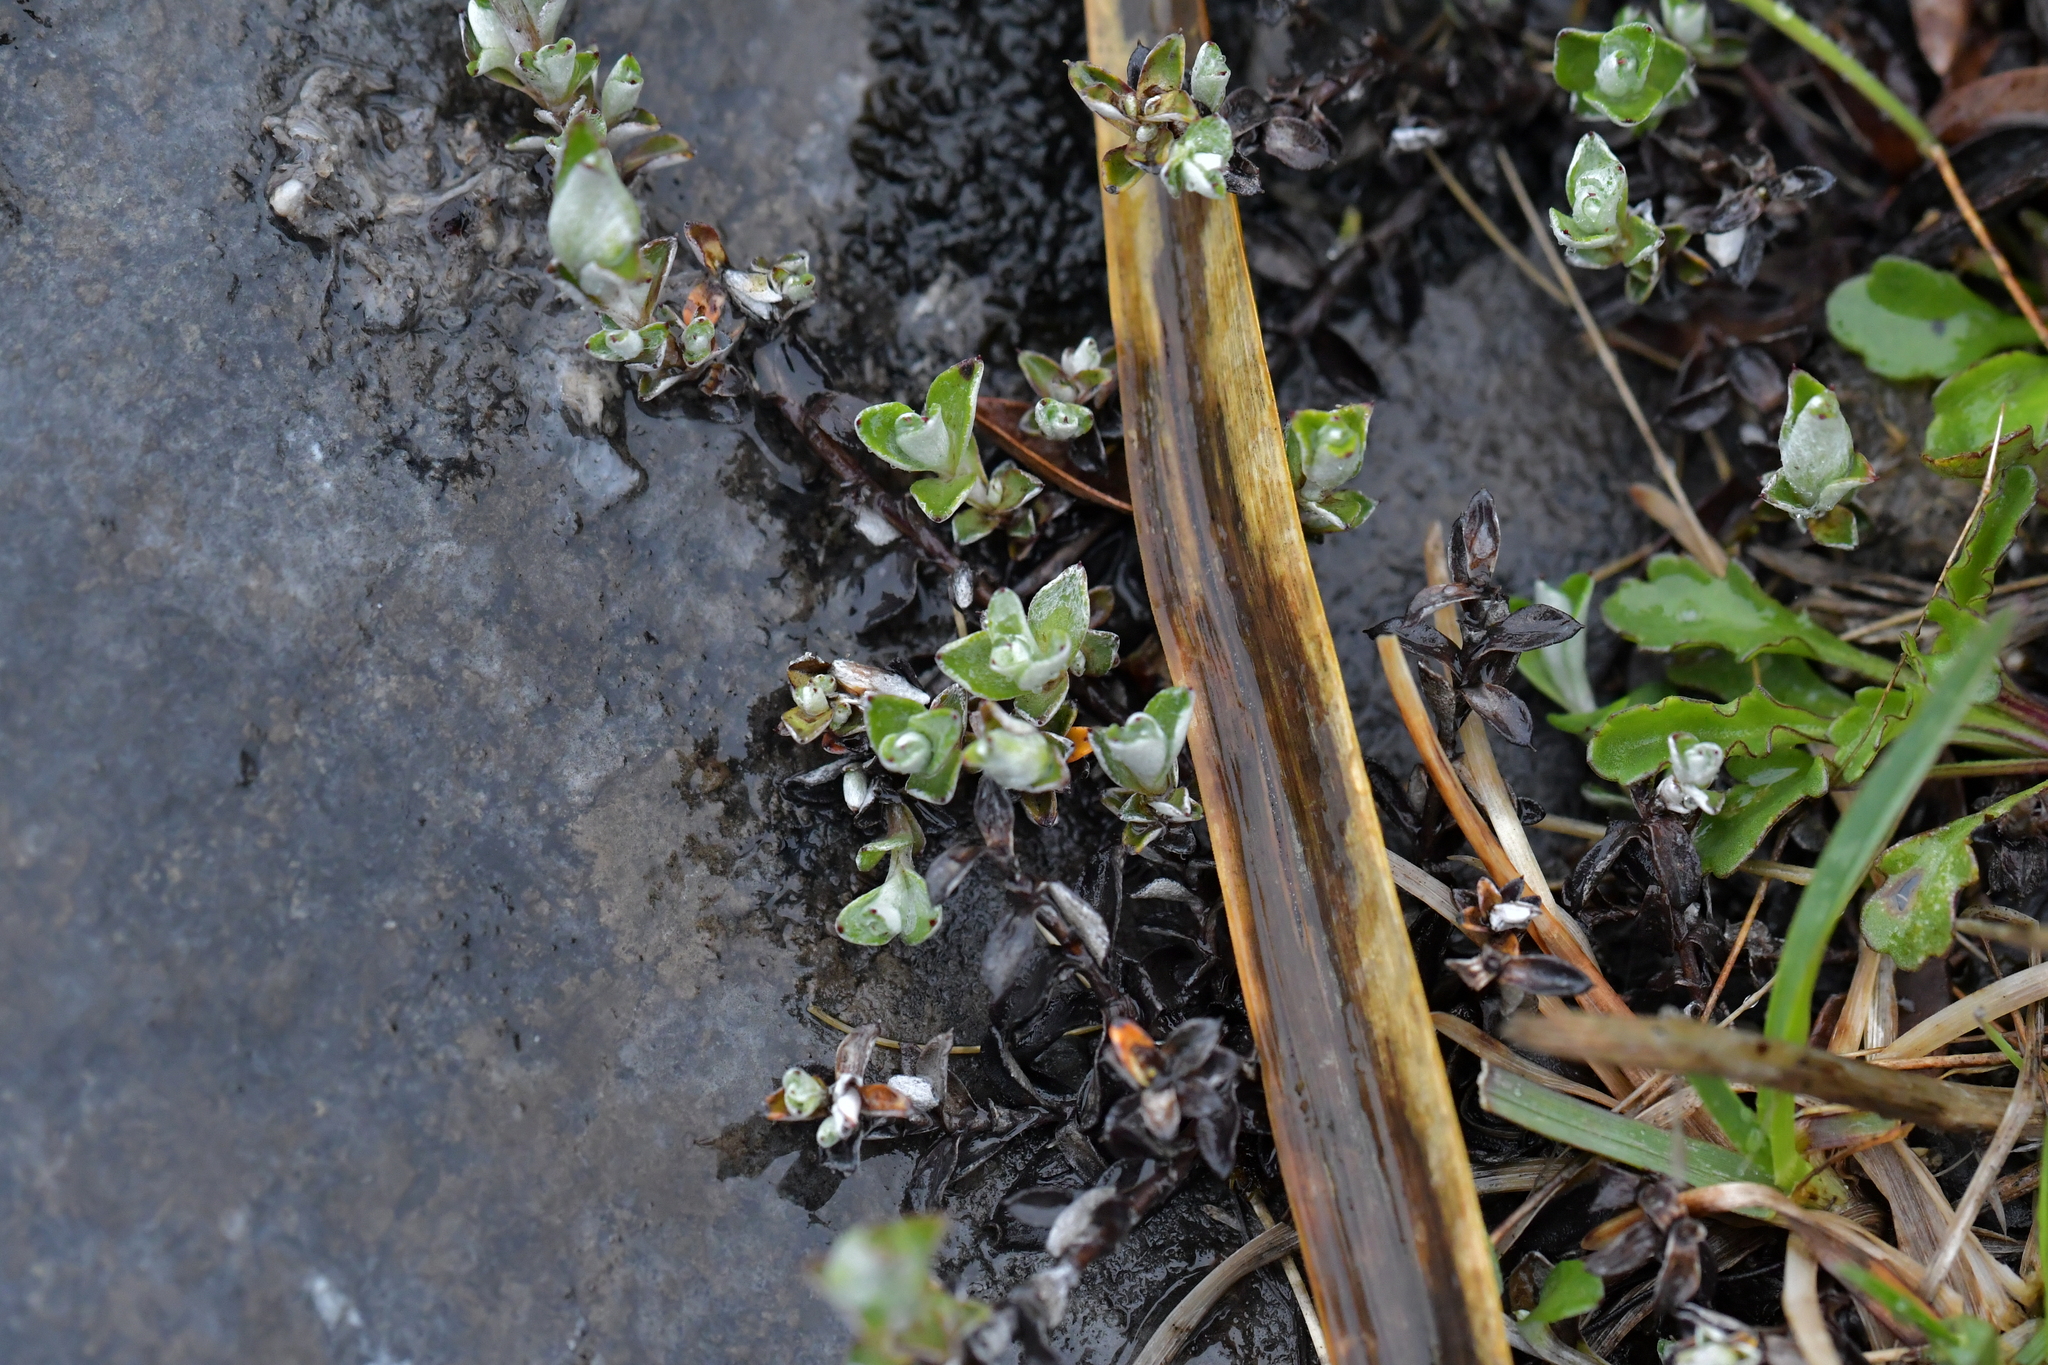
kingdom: Plantae
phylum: Tracheophyta
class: Magnoliopsida
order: Asterales
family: Asteraceae
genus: Anaphalioides
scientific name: Anaphalioides bellidioides
